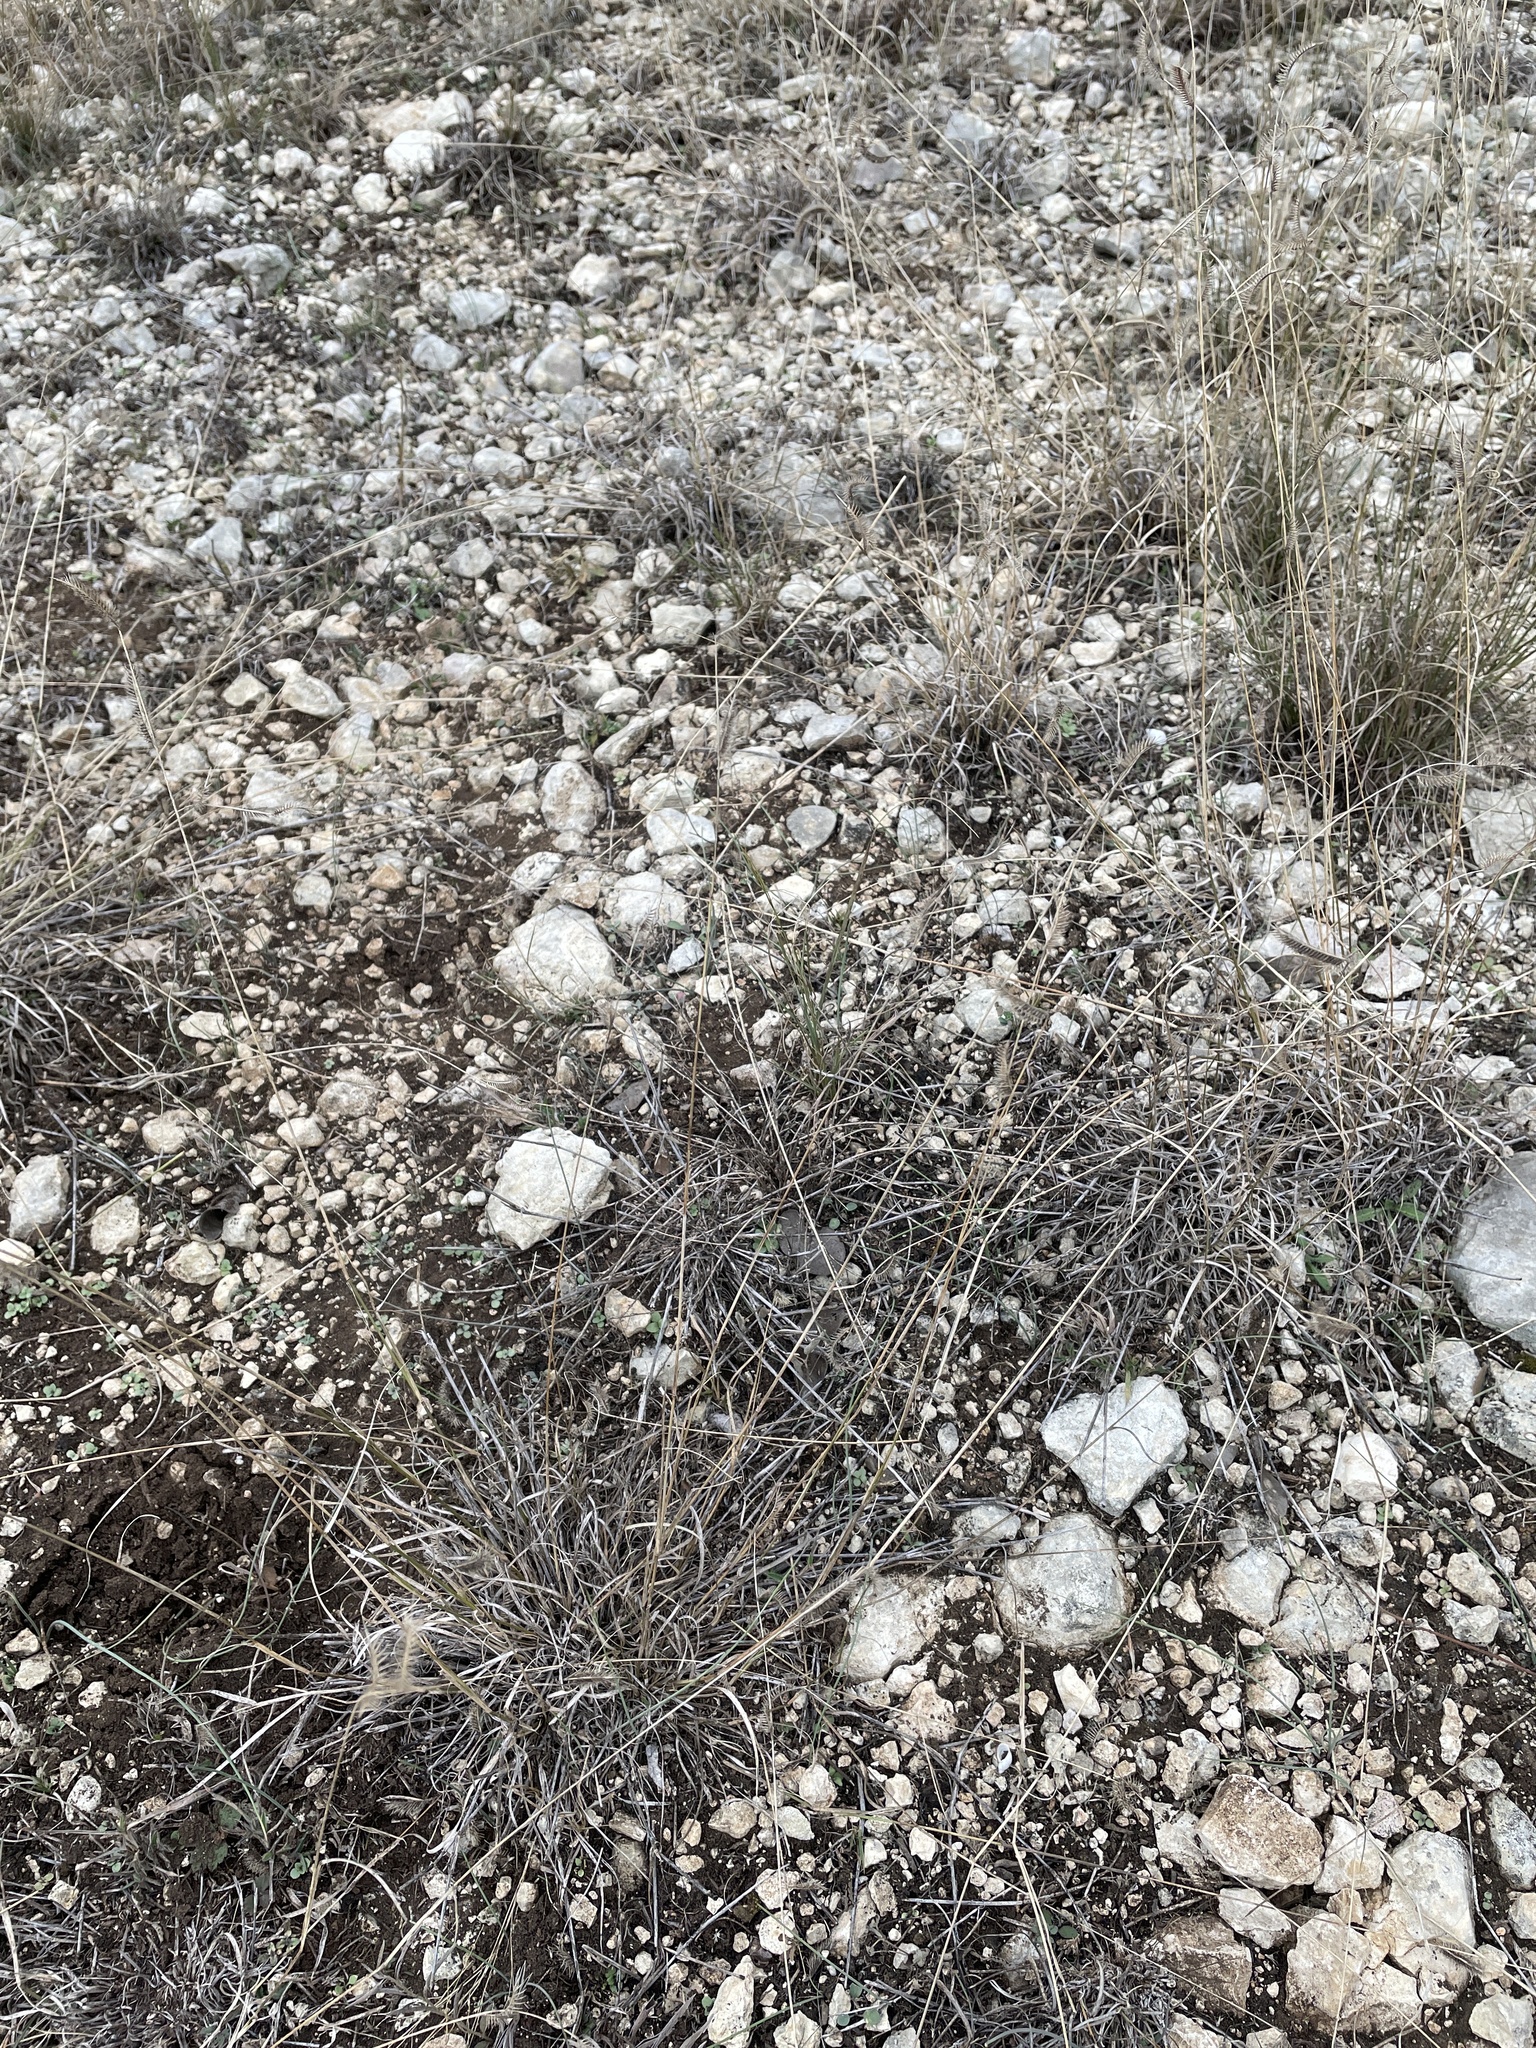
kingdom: Plantae
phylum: Tracheophyta
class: Liliopsida
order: Poales
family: Poaceae
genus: Bouteloua
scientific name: Bouteloua hirsuta
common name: Hairy grama
